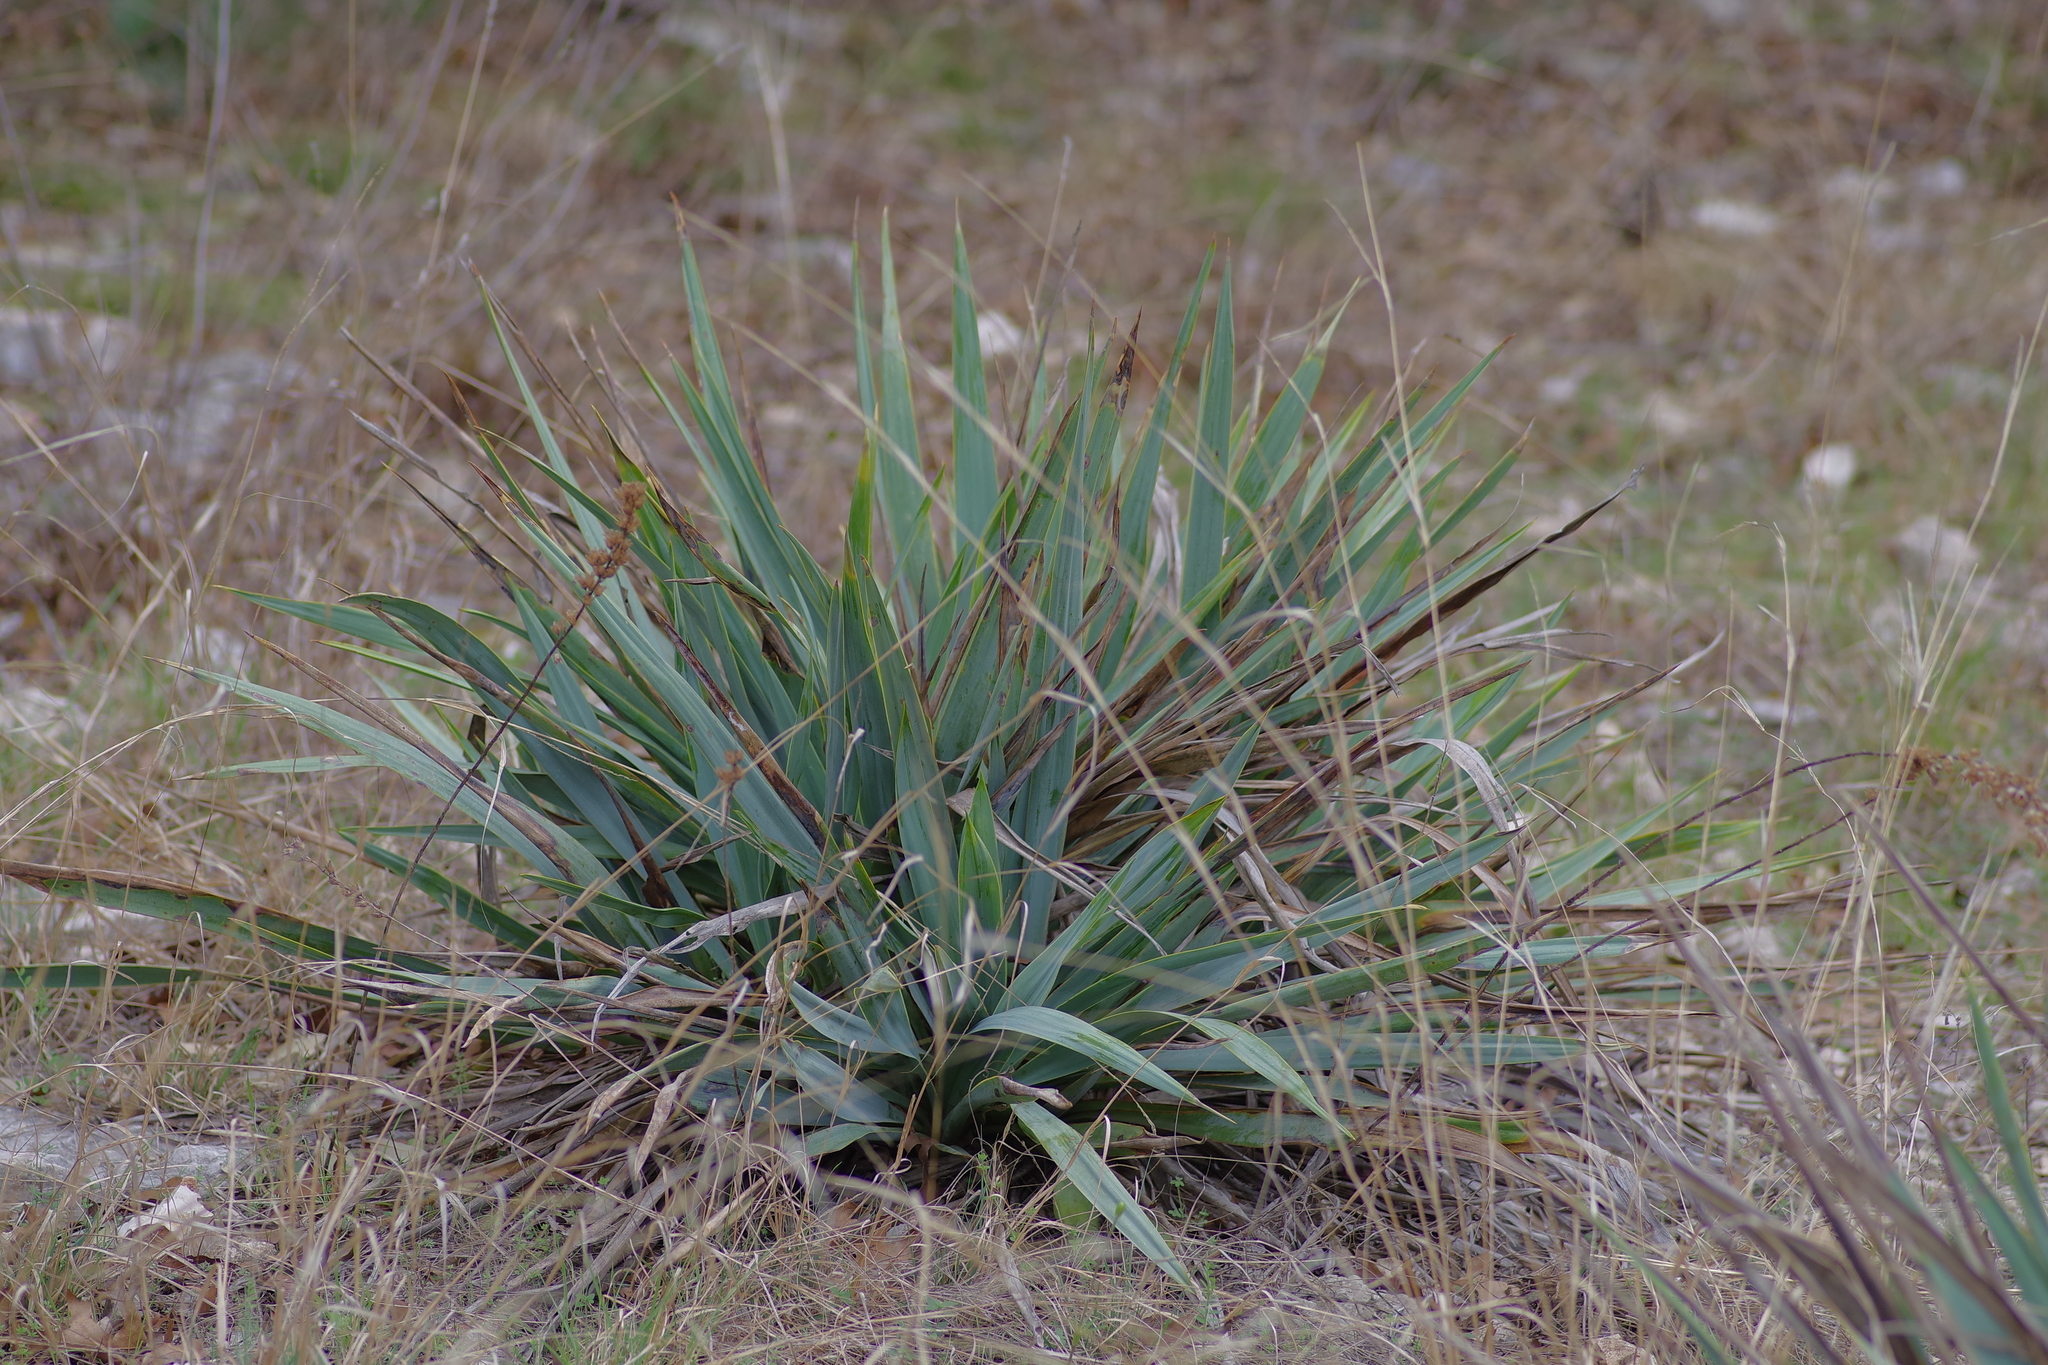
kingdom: Plantae
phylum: Tracheophyta
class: Liliopsida
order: Asparagales
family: Asparagaceae
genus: Yucca
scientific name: Yucca pallida
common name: Pale leaf yucca
